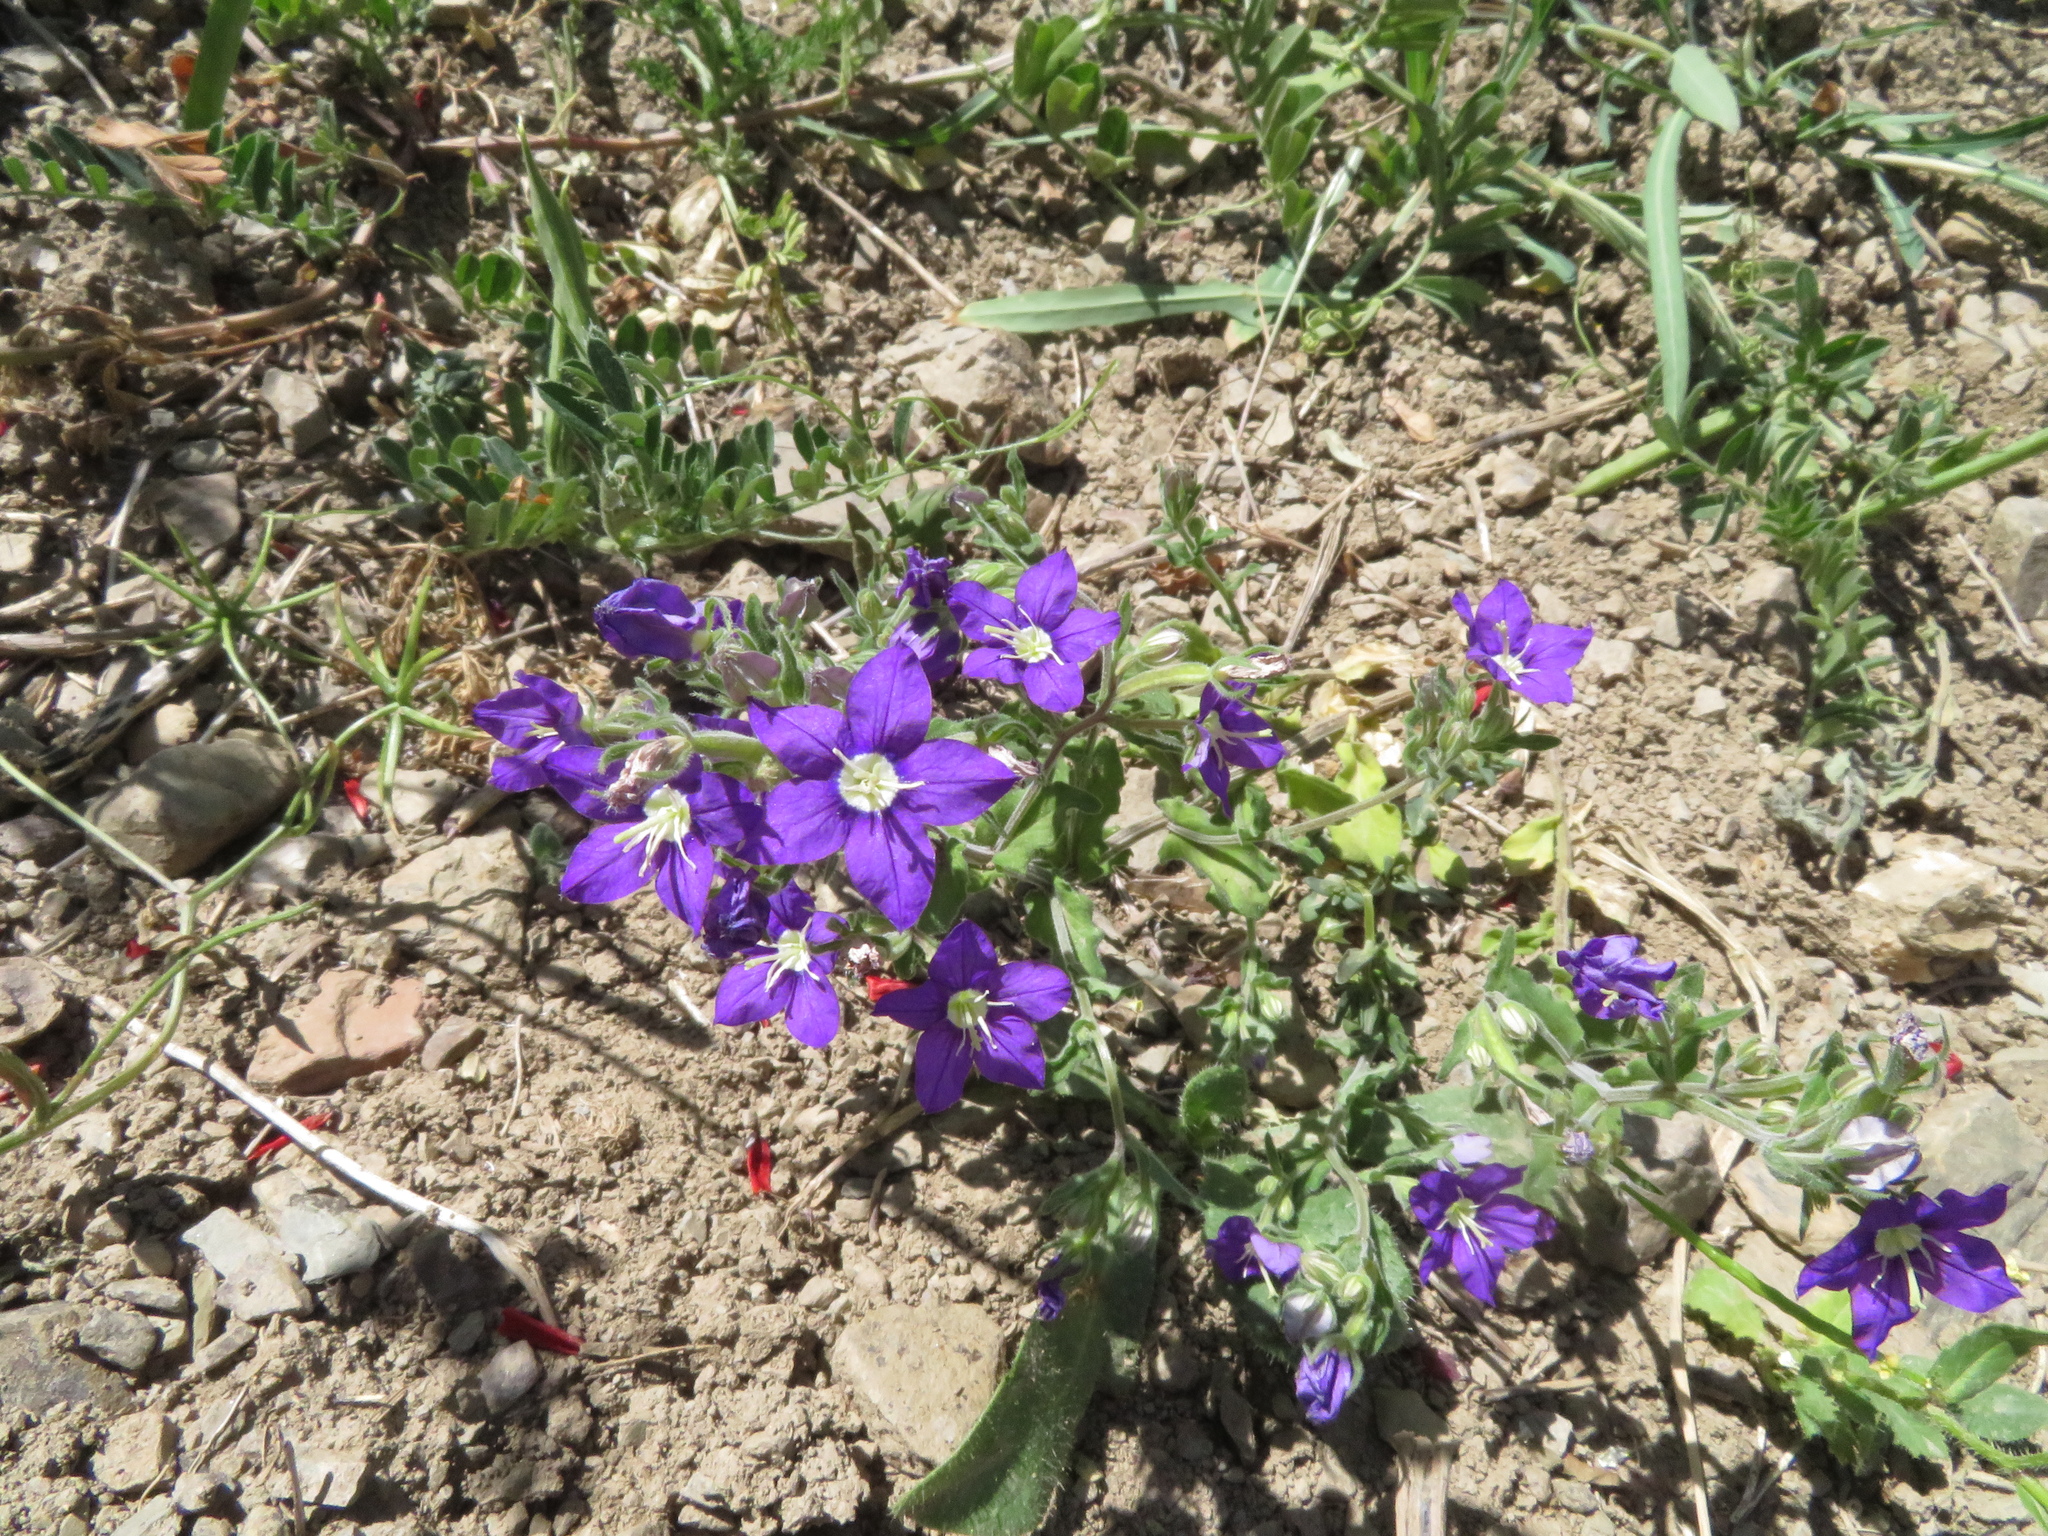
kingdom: Plantae
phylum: Tracheophyta
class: Magnoliopsida
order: Asterales
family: Campanulaceae
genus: Legousia
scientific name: Legousia speculum-veneris
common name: Large venus's-looking-glass
